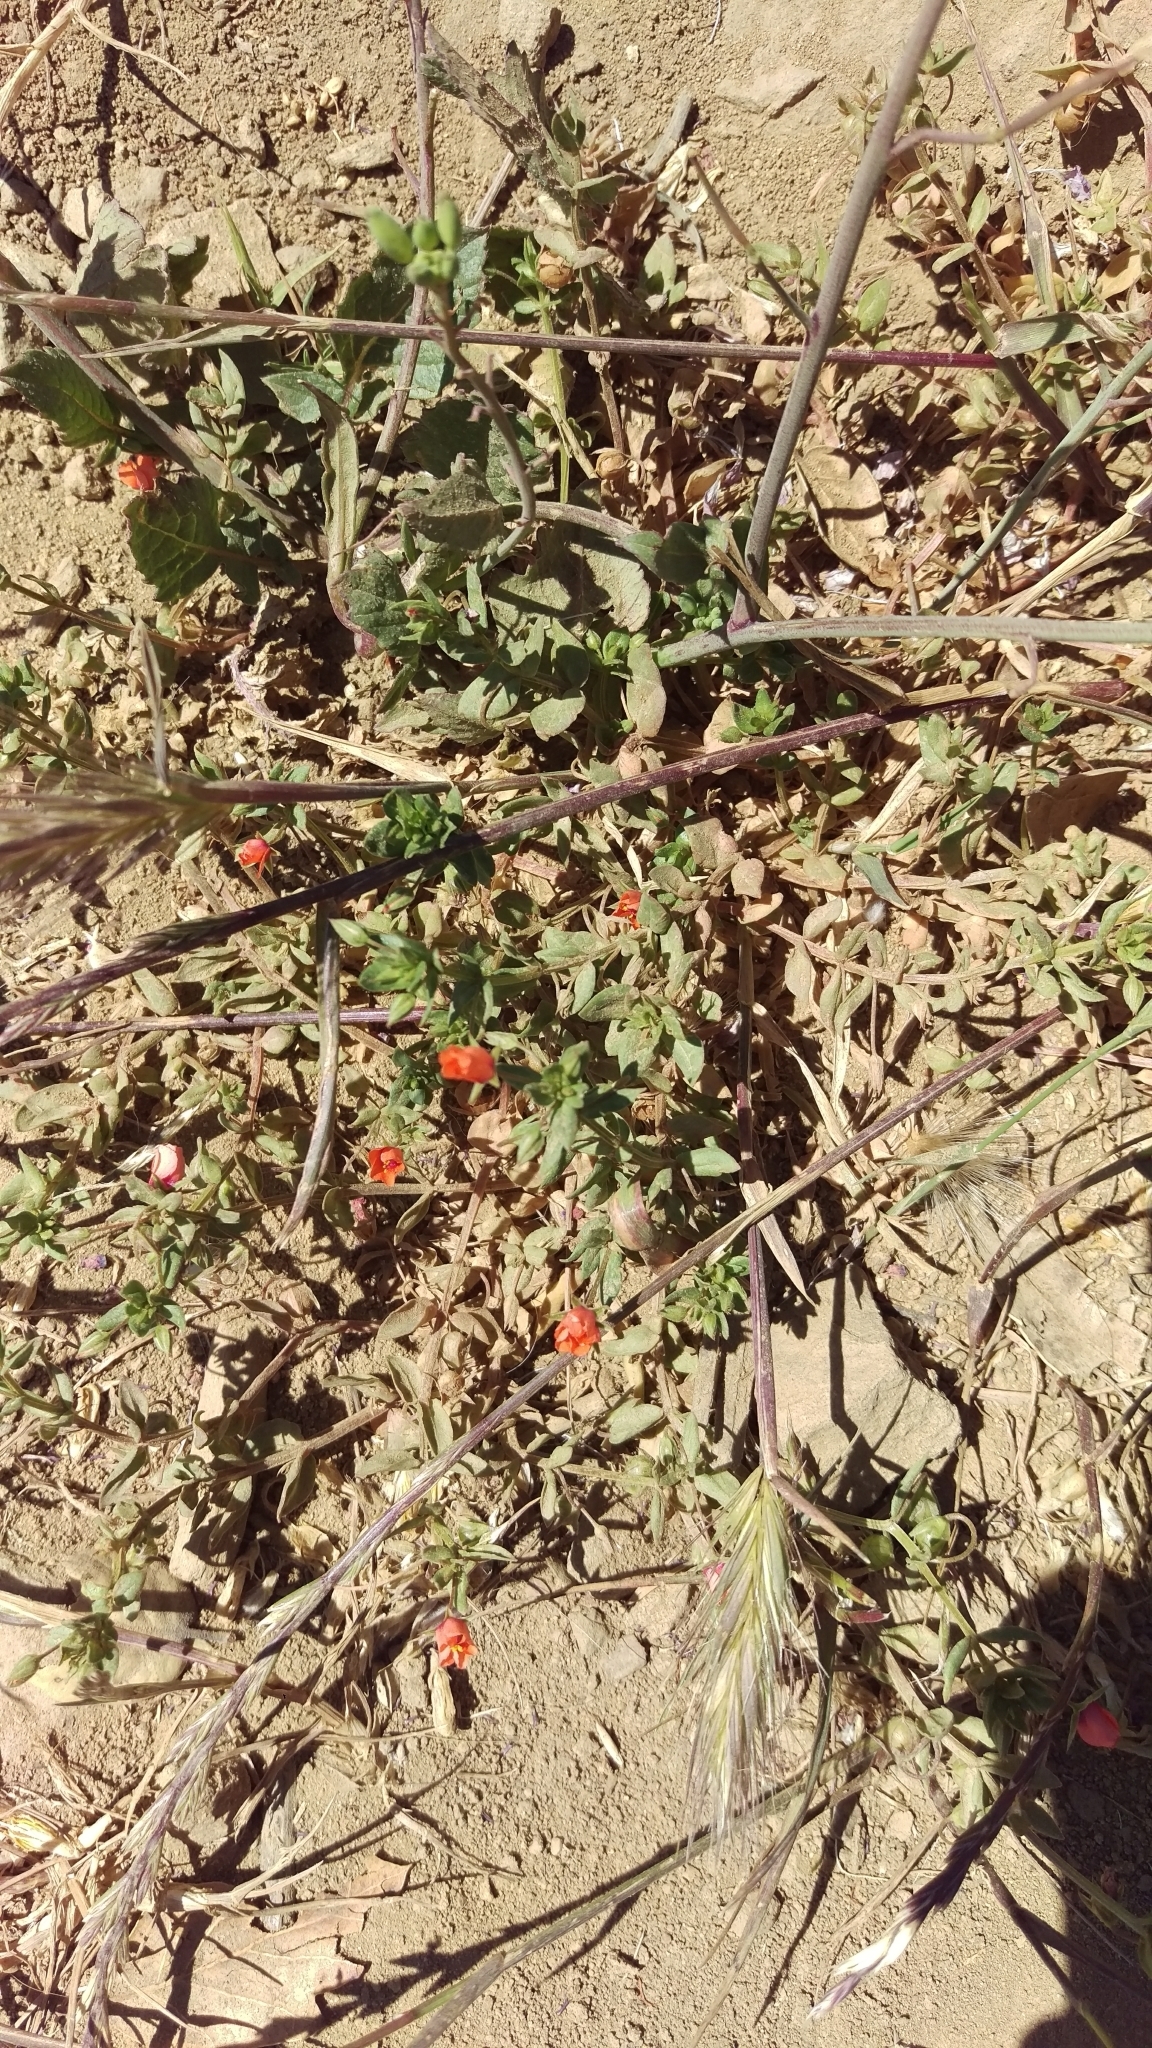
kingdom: Plantae
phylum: Tracheophyta
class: Magnoliopsida
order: Ericales
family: Primulaceae
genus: Lysimachia
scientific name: Lysimachia arvensis
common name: Scarlet pimpernel
